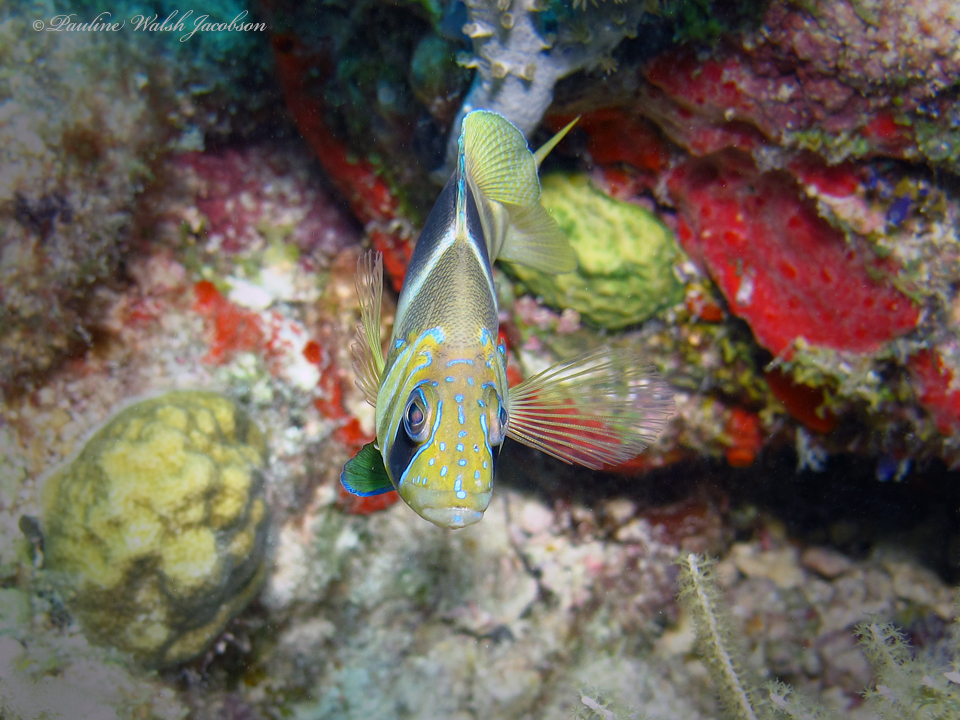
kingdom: Animalia
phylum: Chordata
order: Perciformes
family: Serranidae
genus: Hypoplectrus
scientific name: Hypoplectrus puella
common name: Barred hamlet
